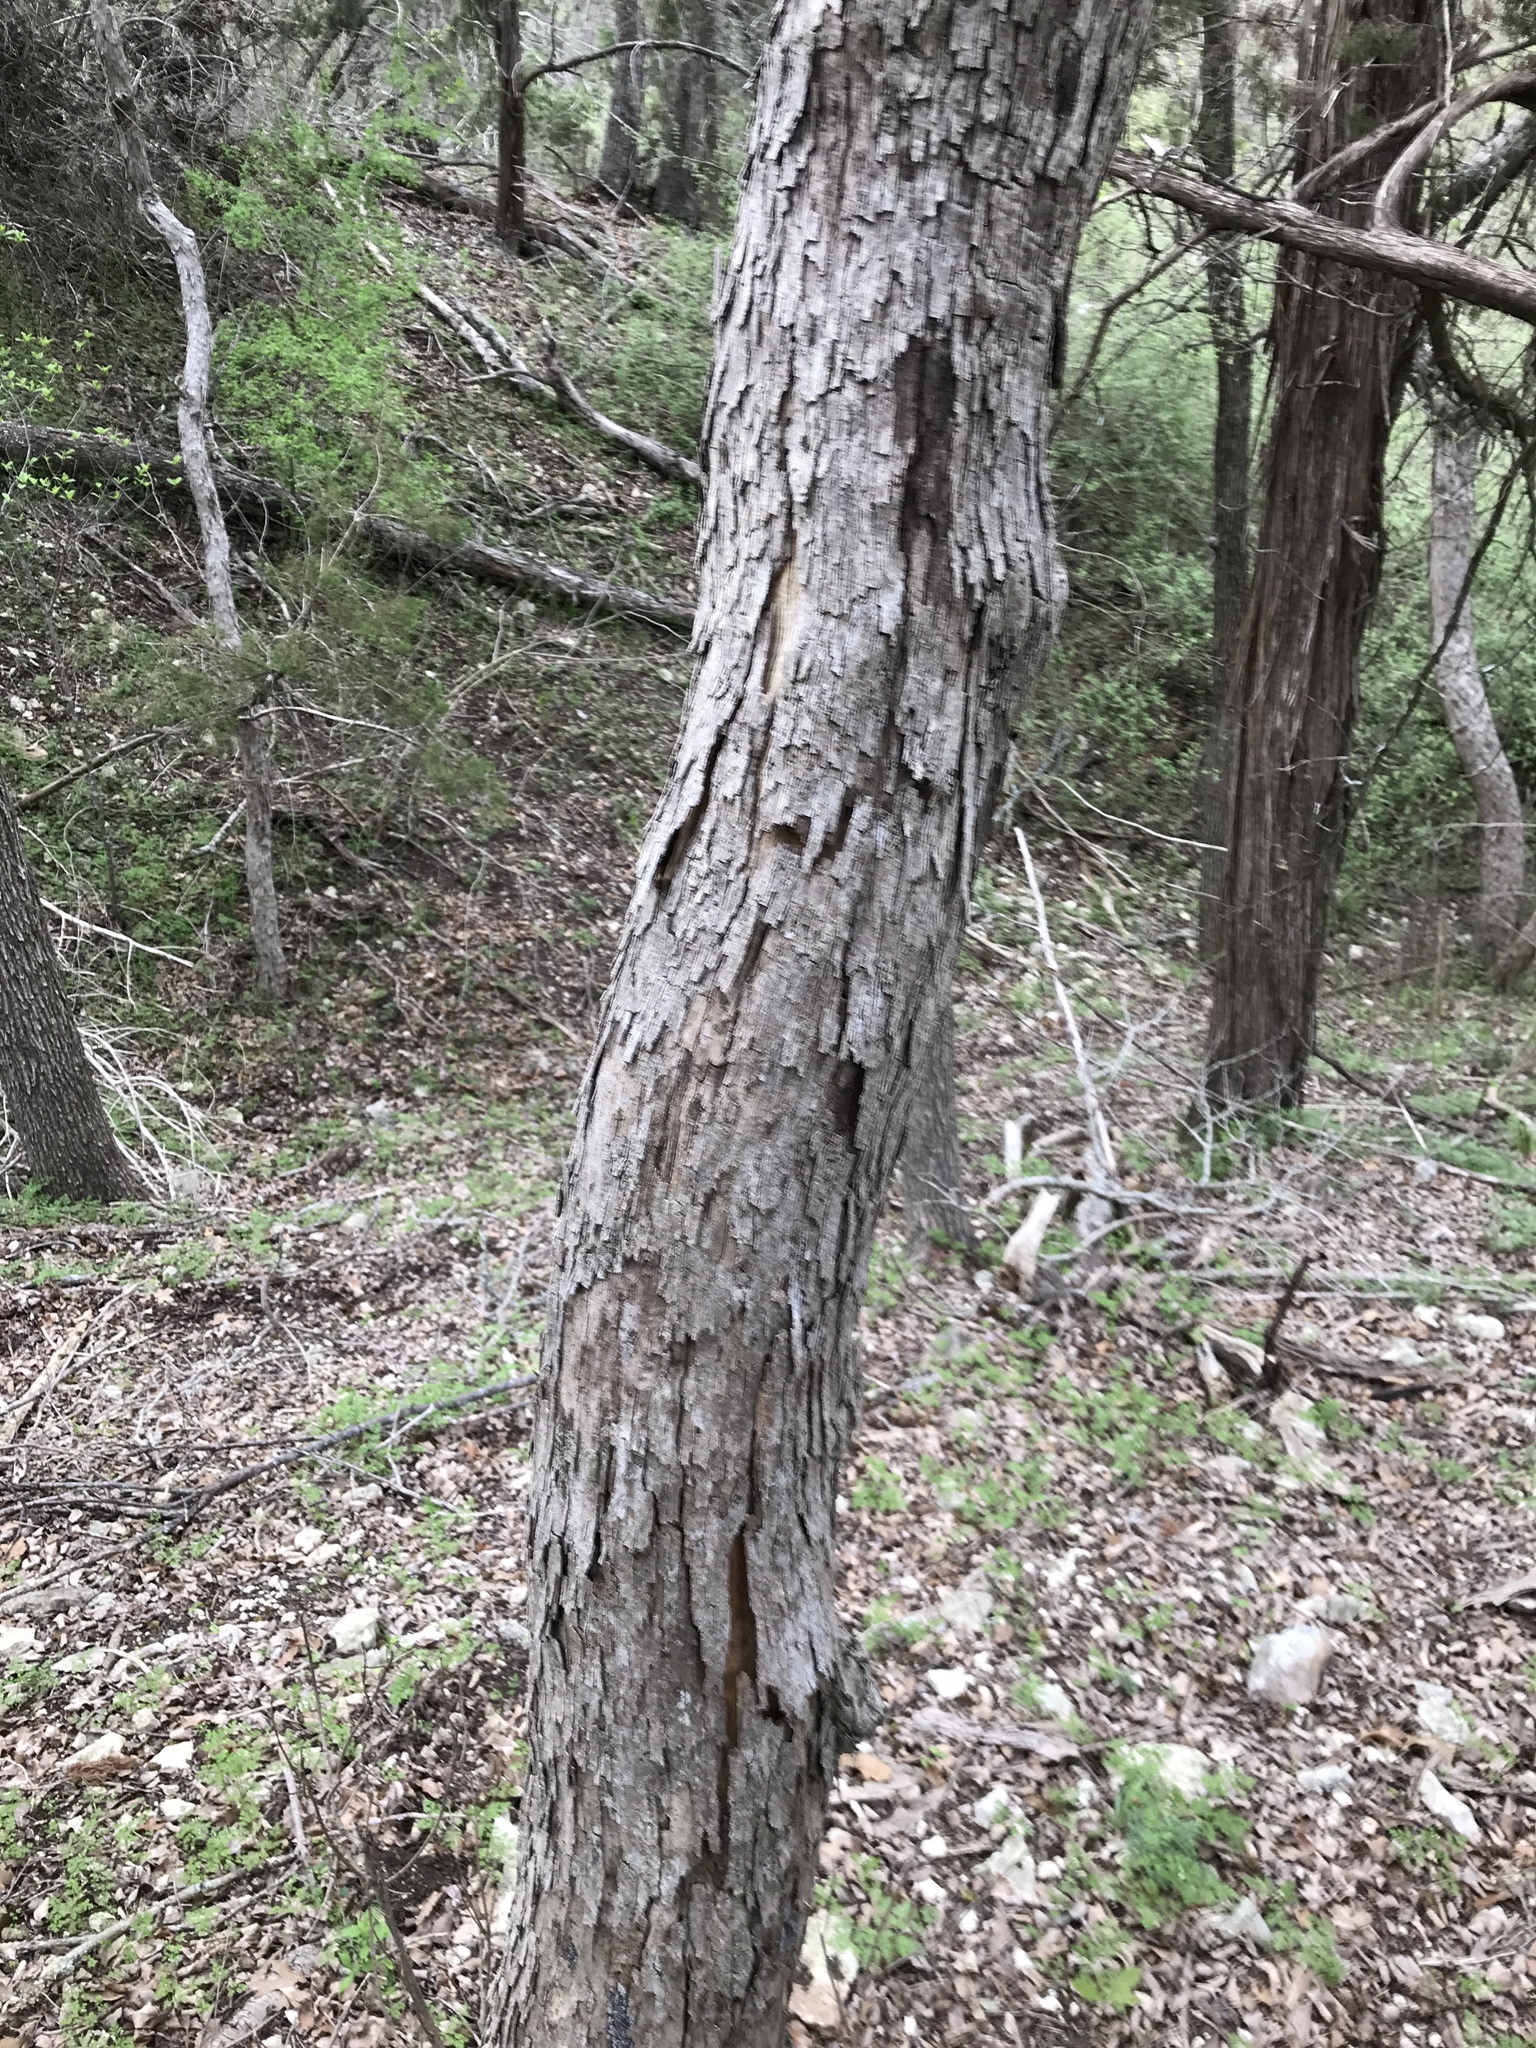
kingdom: Plantae
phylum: Tracheophyta
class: Magnoliopsida
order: Fagales
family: Fagaceae
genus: Quercus
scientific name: Quercus sinuata
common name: Durand oak
